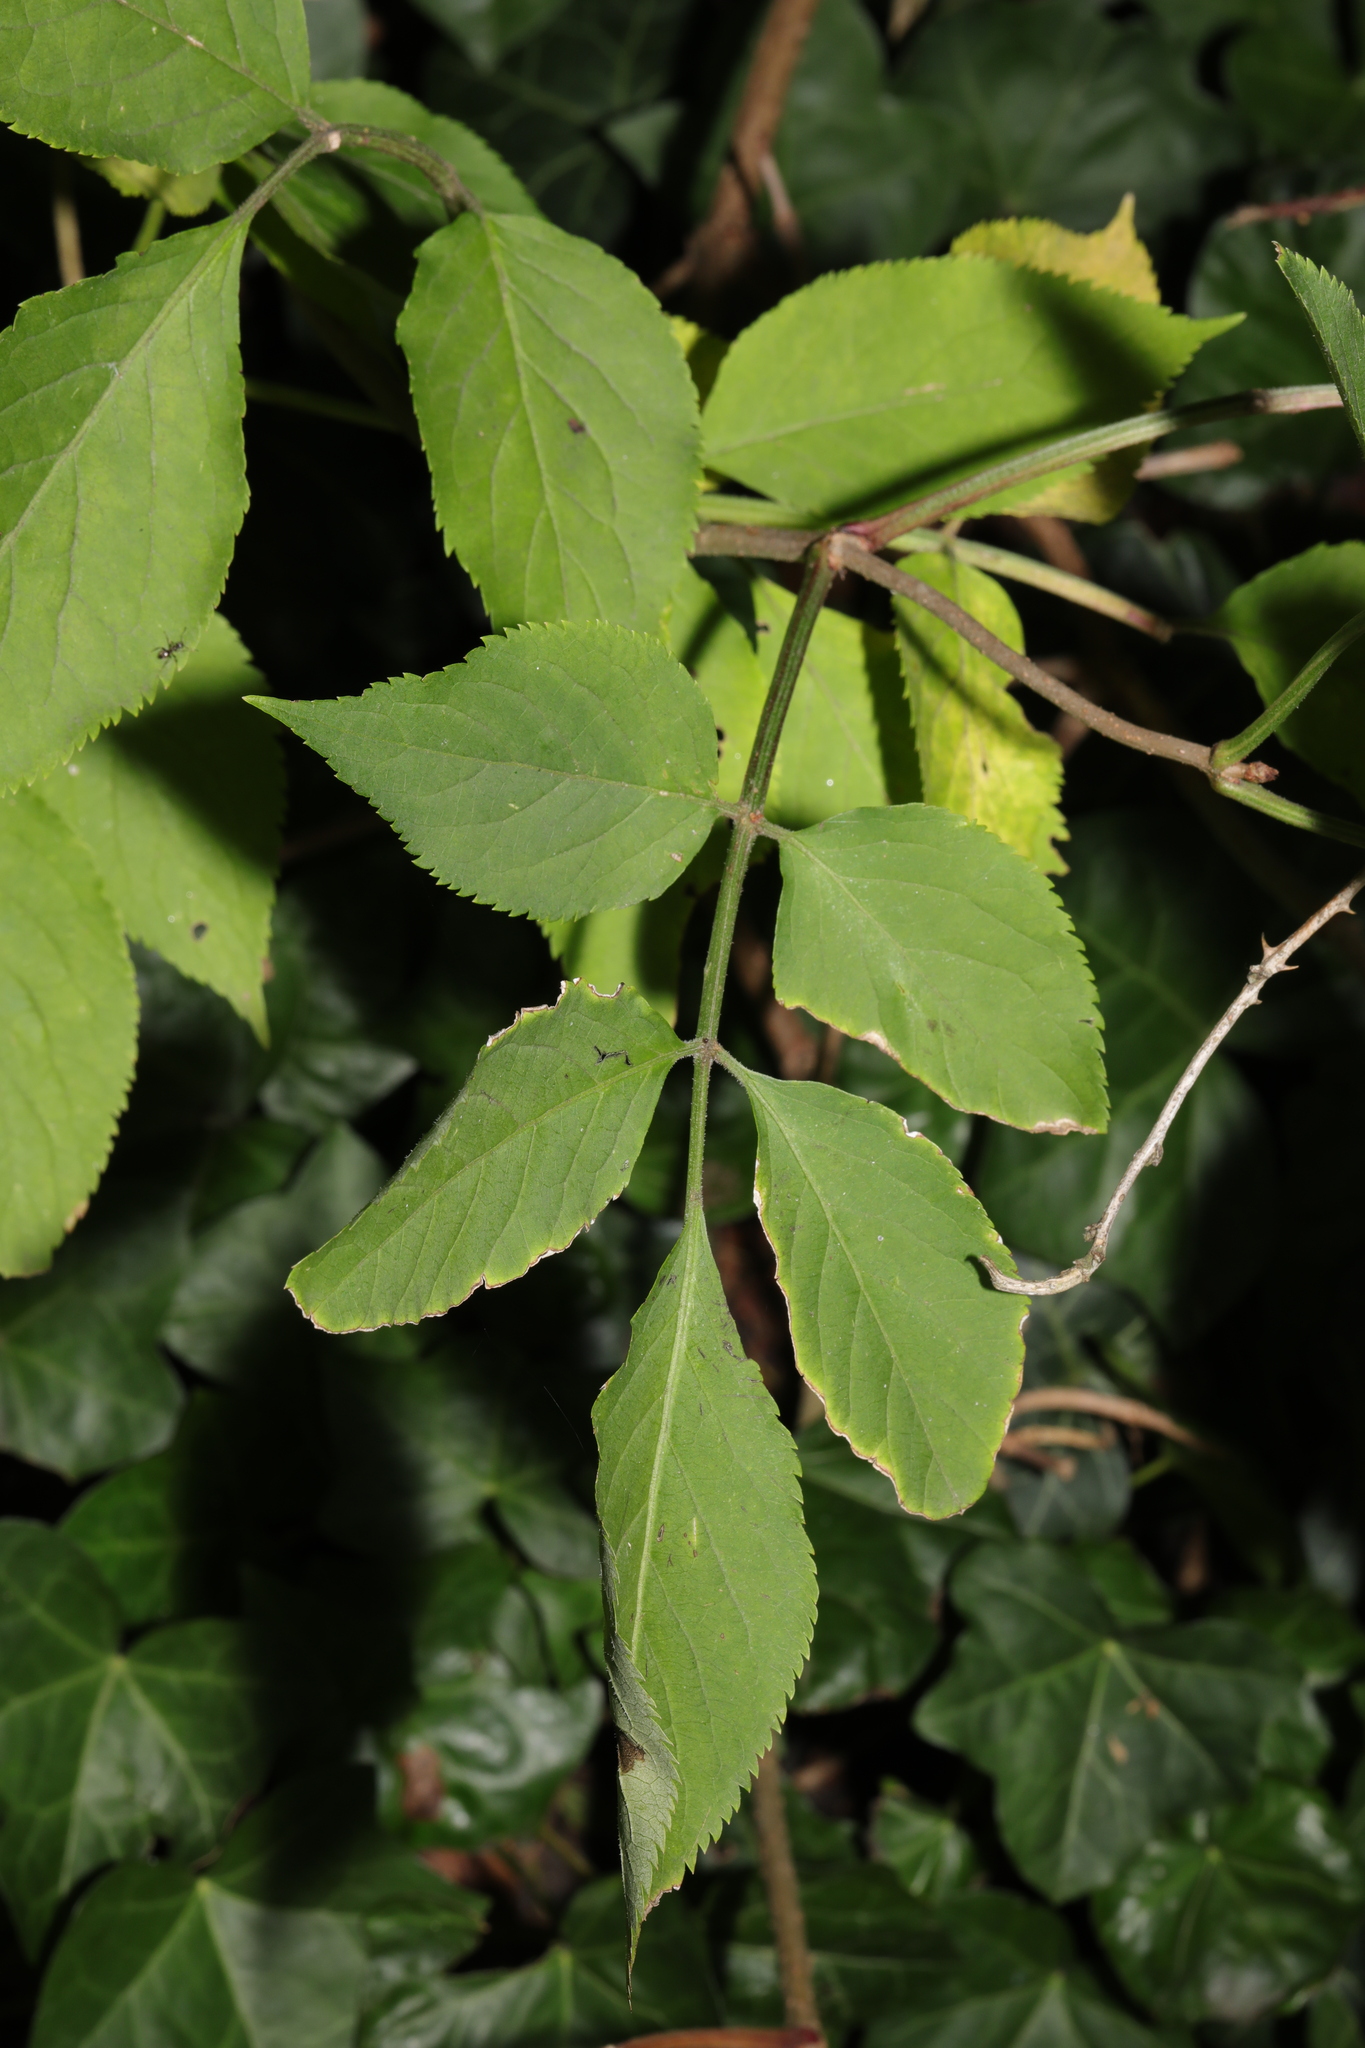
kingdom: Plantae
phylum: Tracheophyta
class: Magnoliopsida
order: Dipsacales
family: Viburnaceae
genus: Sambucus
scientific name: Sambucus nigra
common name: Elder
